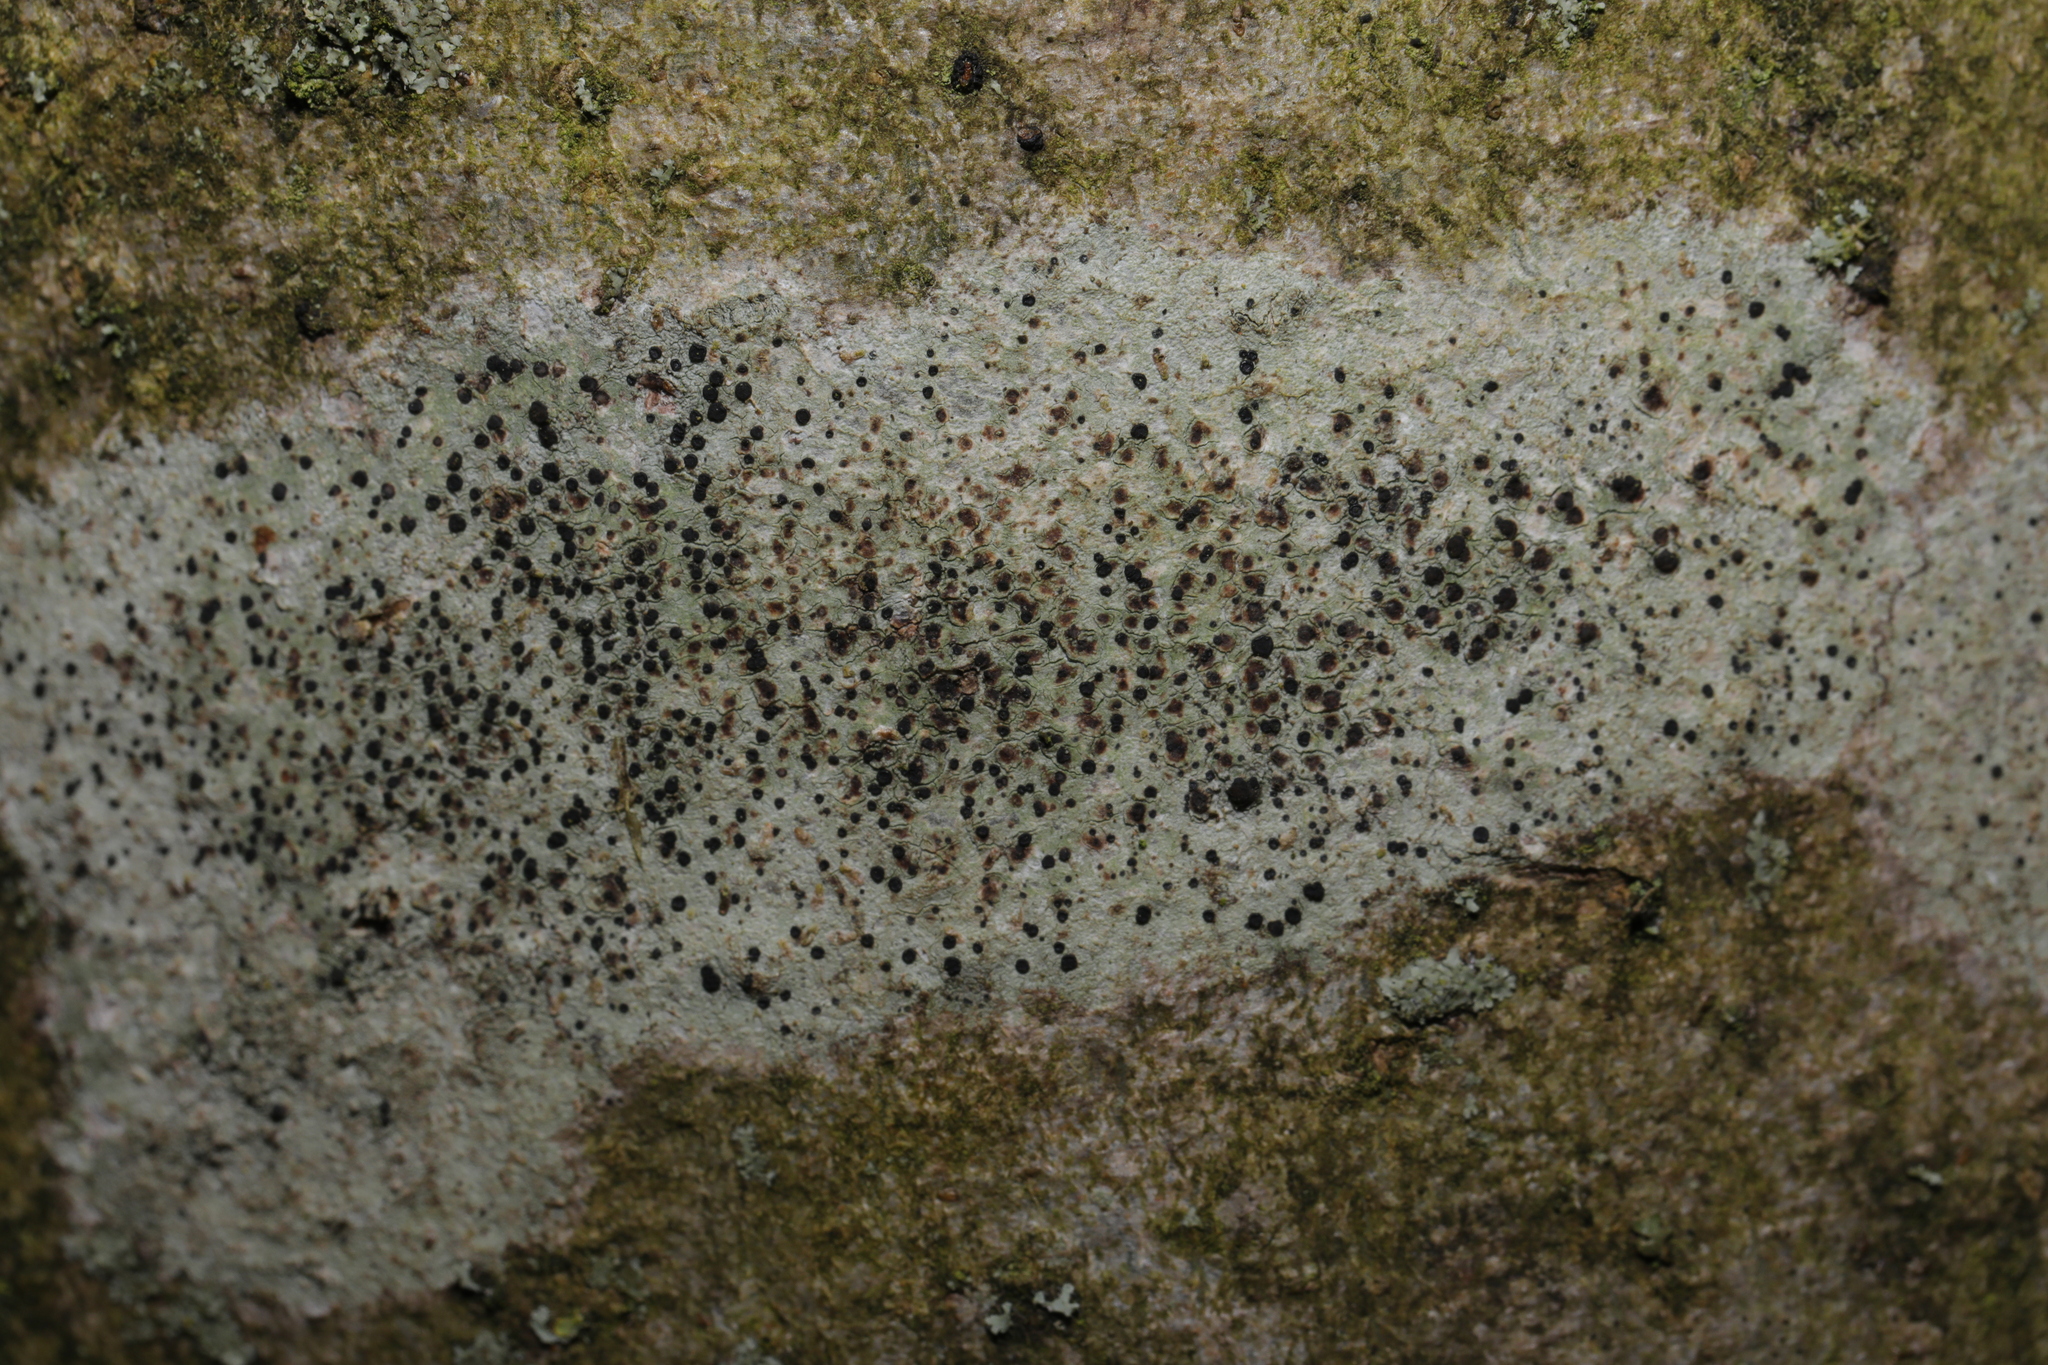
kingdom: Fungi
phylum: Ascomycota
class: Lecanoromycetes
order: Lecanorales
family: Lecanoraceae
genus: Lecidella
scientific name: Lecidella elaeochroma
